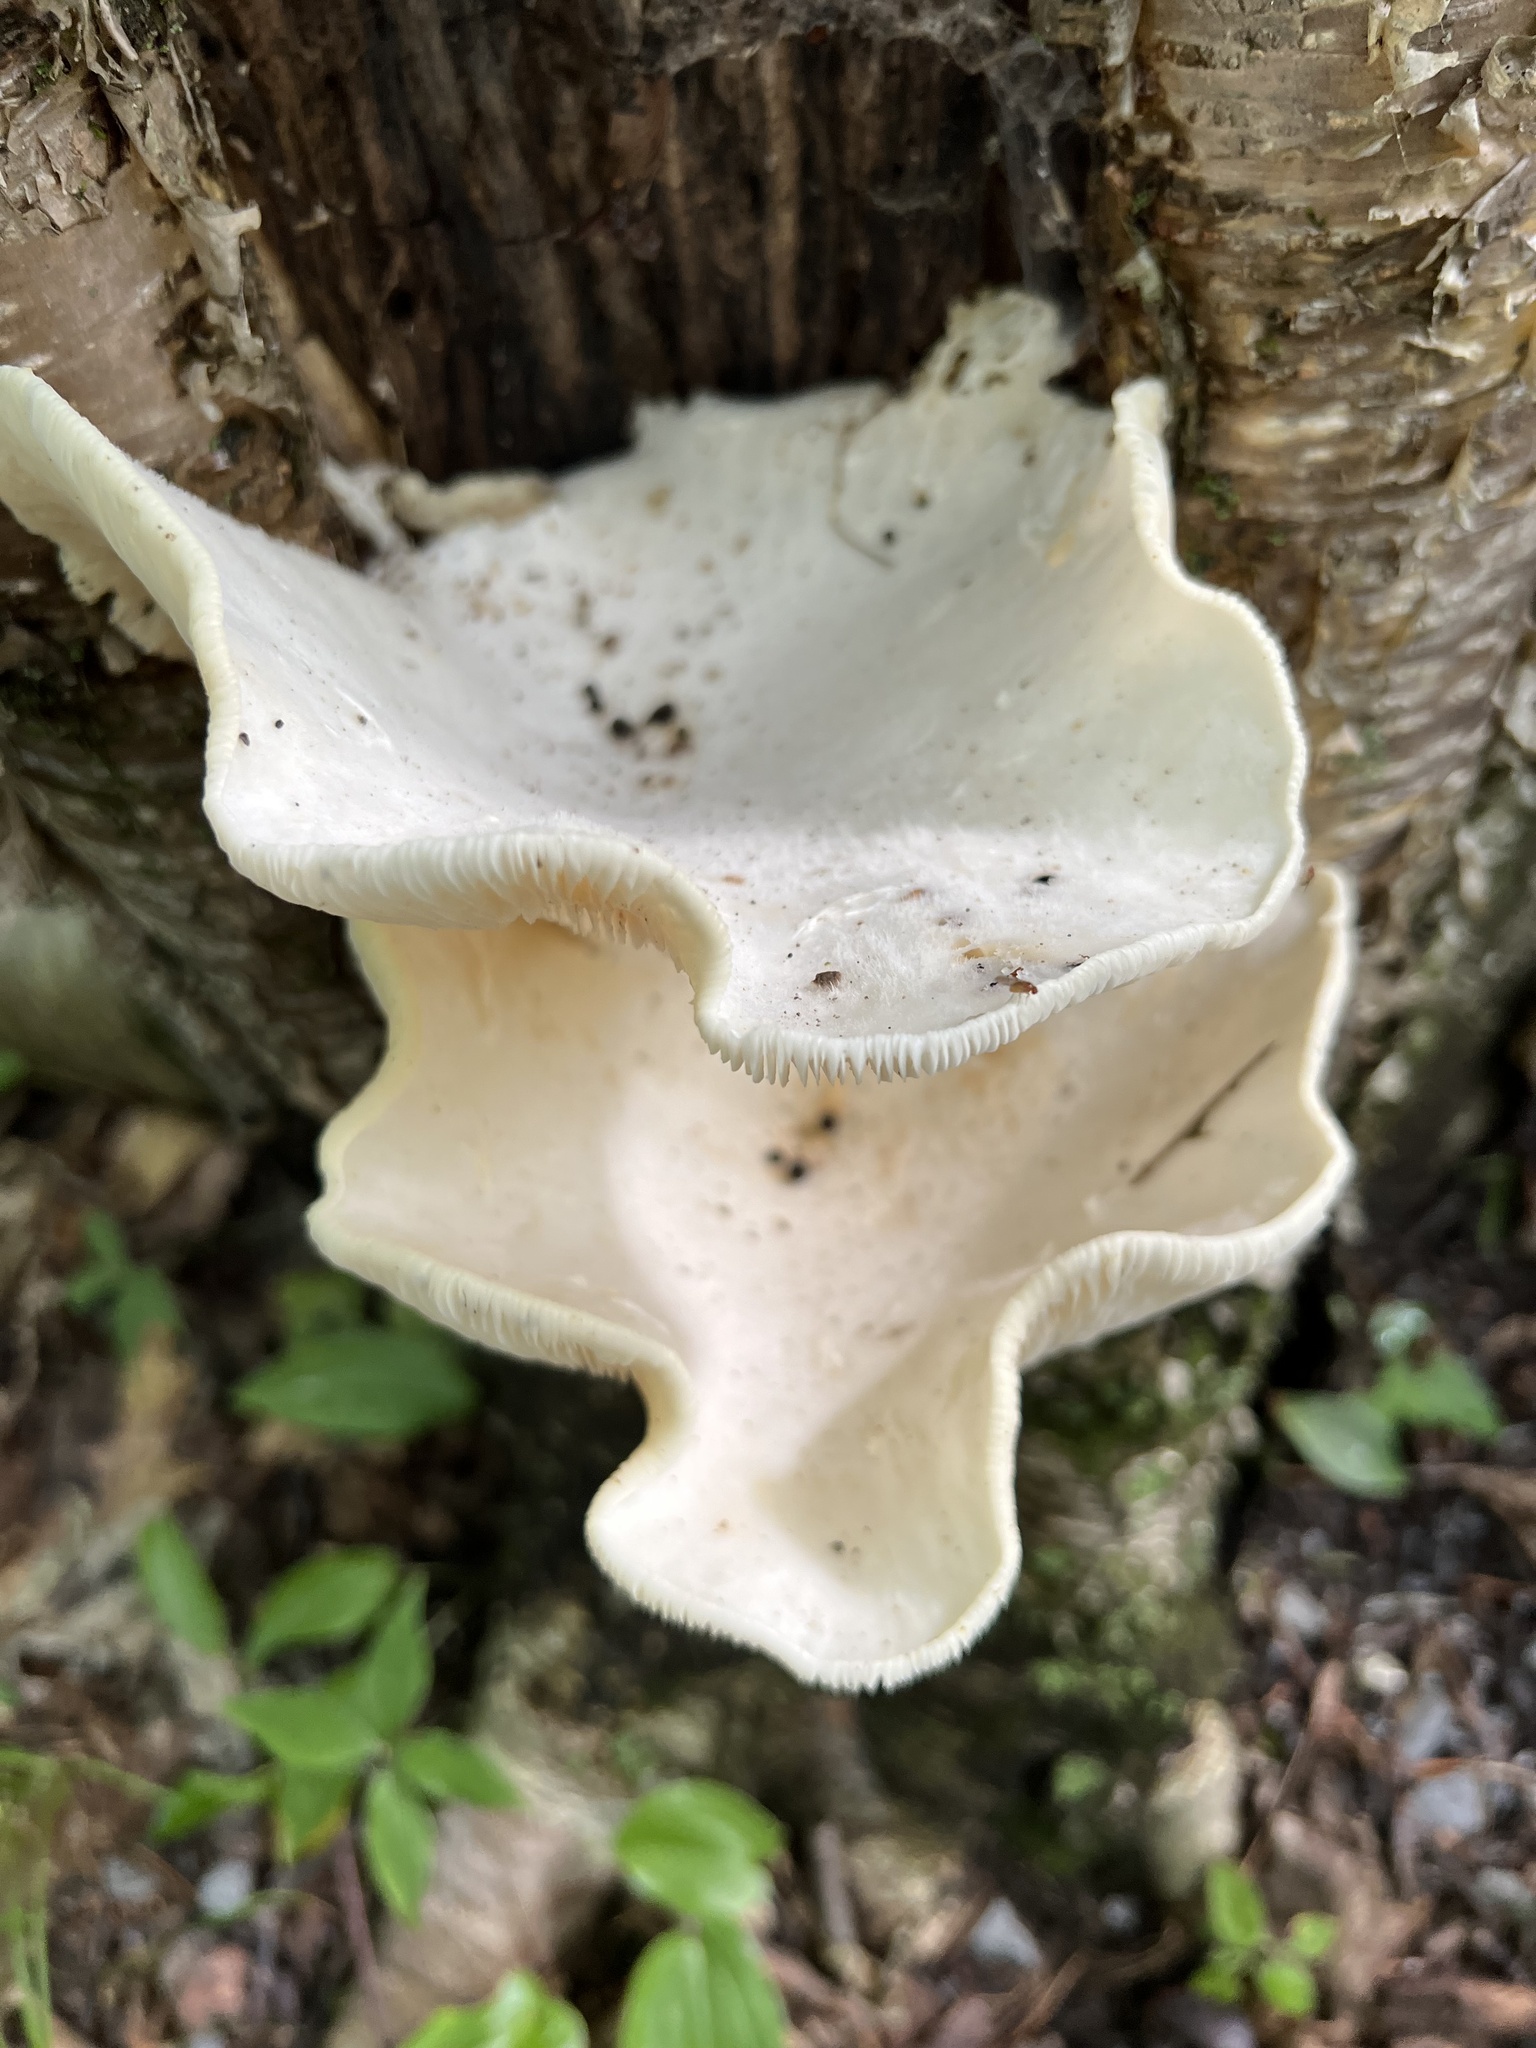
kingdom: Fungi
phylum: Basidiomycota
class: Agaricomycetes
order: Agaricales
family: Pleurotaceae
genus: Pleurotus
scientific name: Pleurotus pulmonarius
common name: Pale oyster
